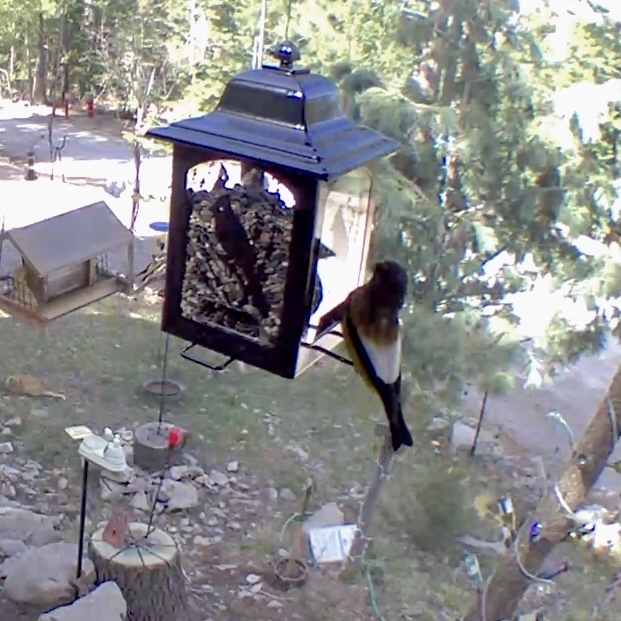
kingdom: Animalia
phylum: Chordata
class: Aves
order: Passeriformes
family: Fringillidae
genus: Hesperiphona
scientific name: Hesperiphona vespertina
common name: Evening grosbeak
